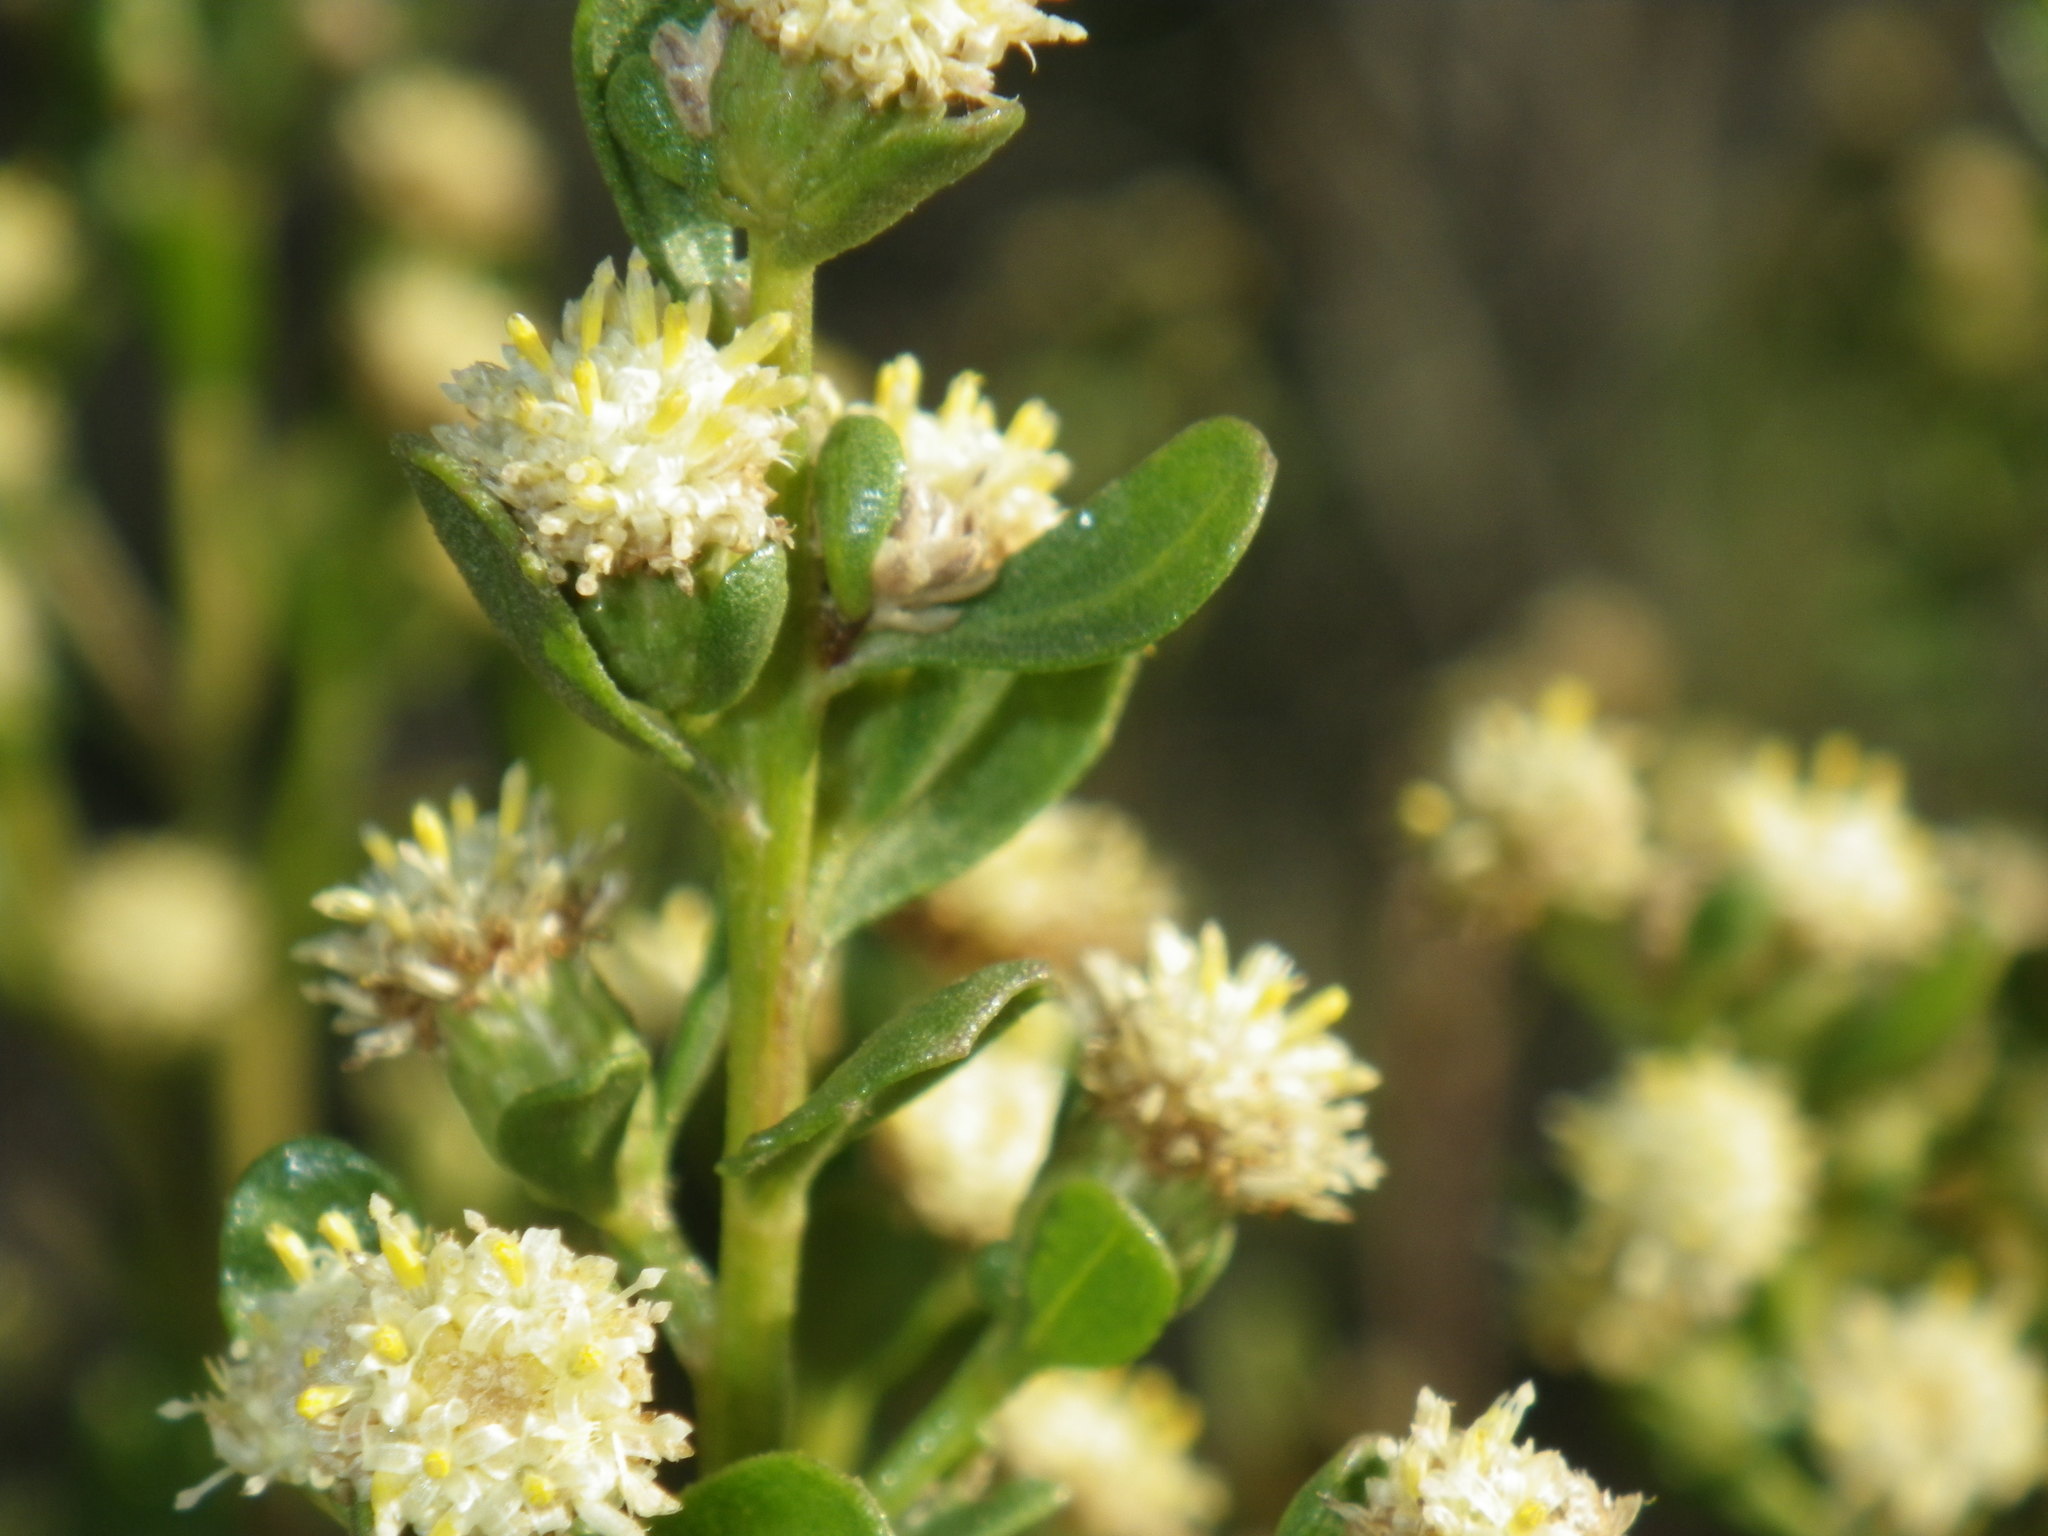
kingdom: Plantae
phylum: Tracheophyta
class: Magnoliopsida
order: Asterales
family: Asteraceae
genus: Baccharis
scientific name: Baccharis pilularis
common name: Coyotebrush
